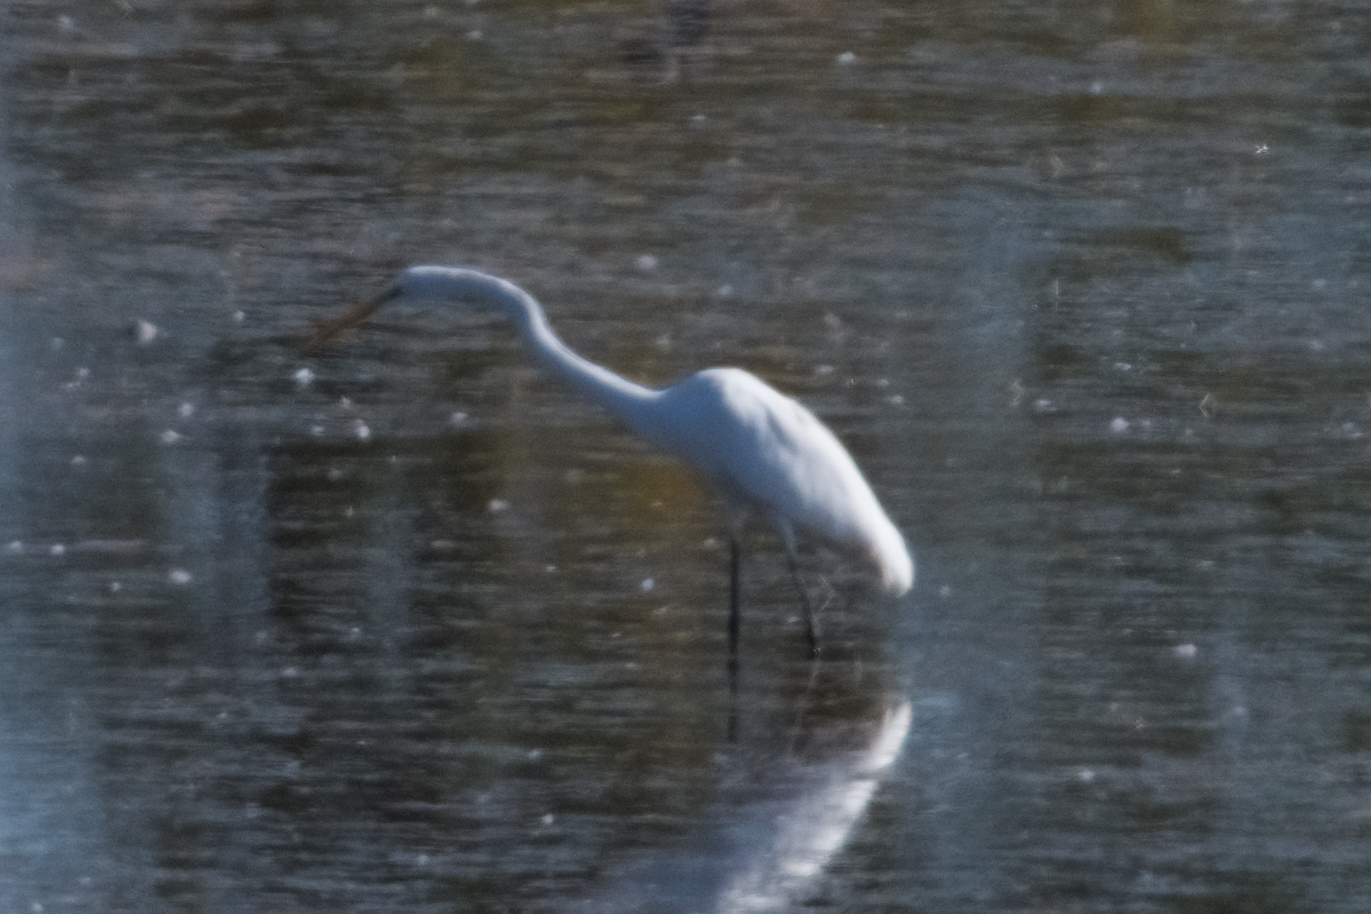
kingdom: Animalia
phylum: Chordata
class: Aves
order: Pelecaniformes
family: Ardeidae
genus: Ardea
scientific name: Ardea alba
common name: Great egret
